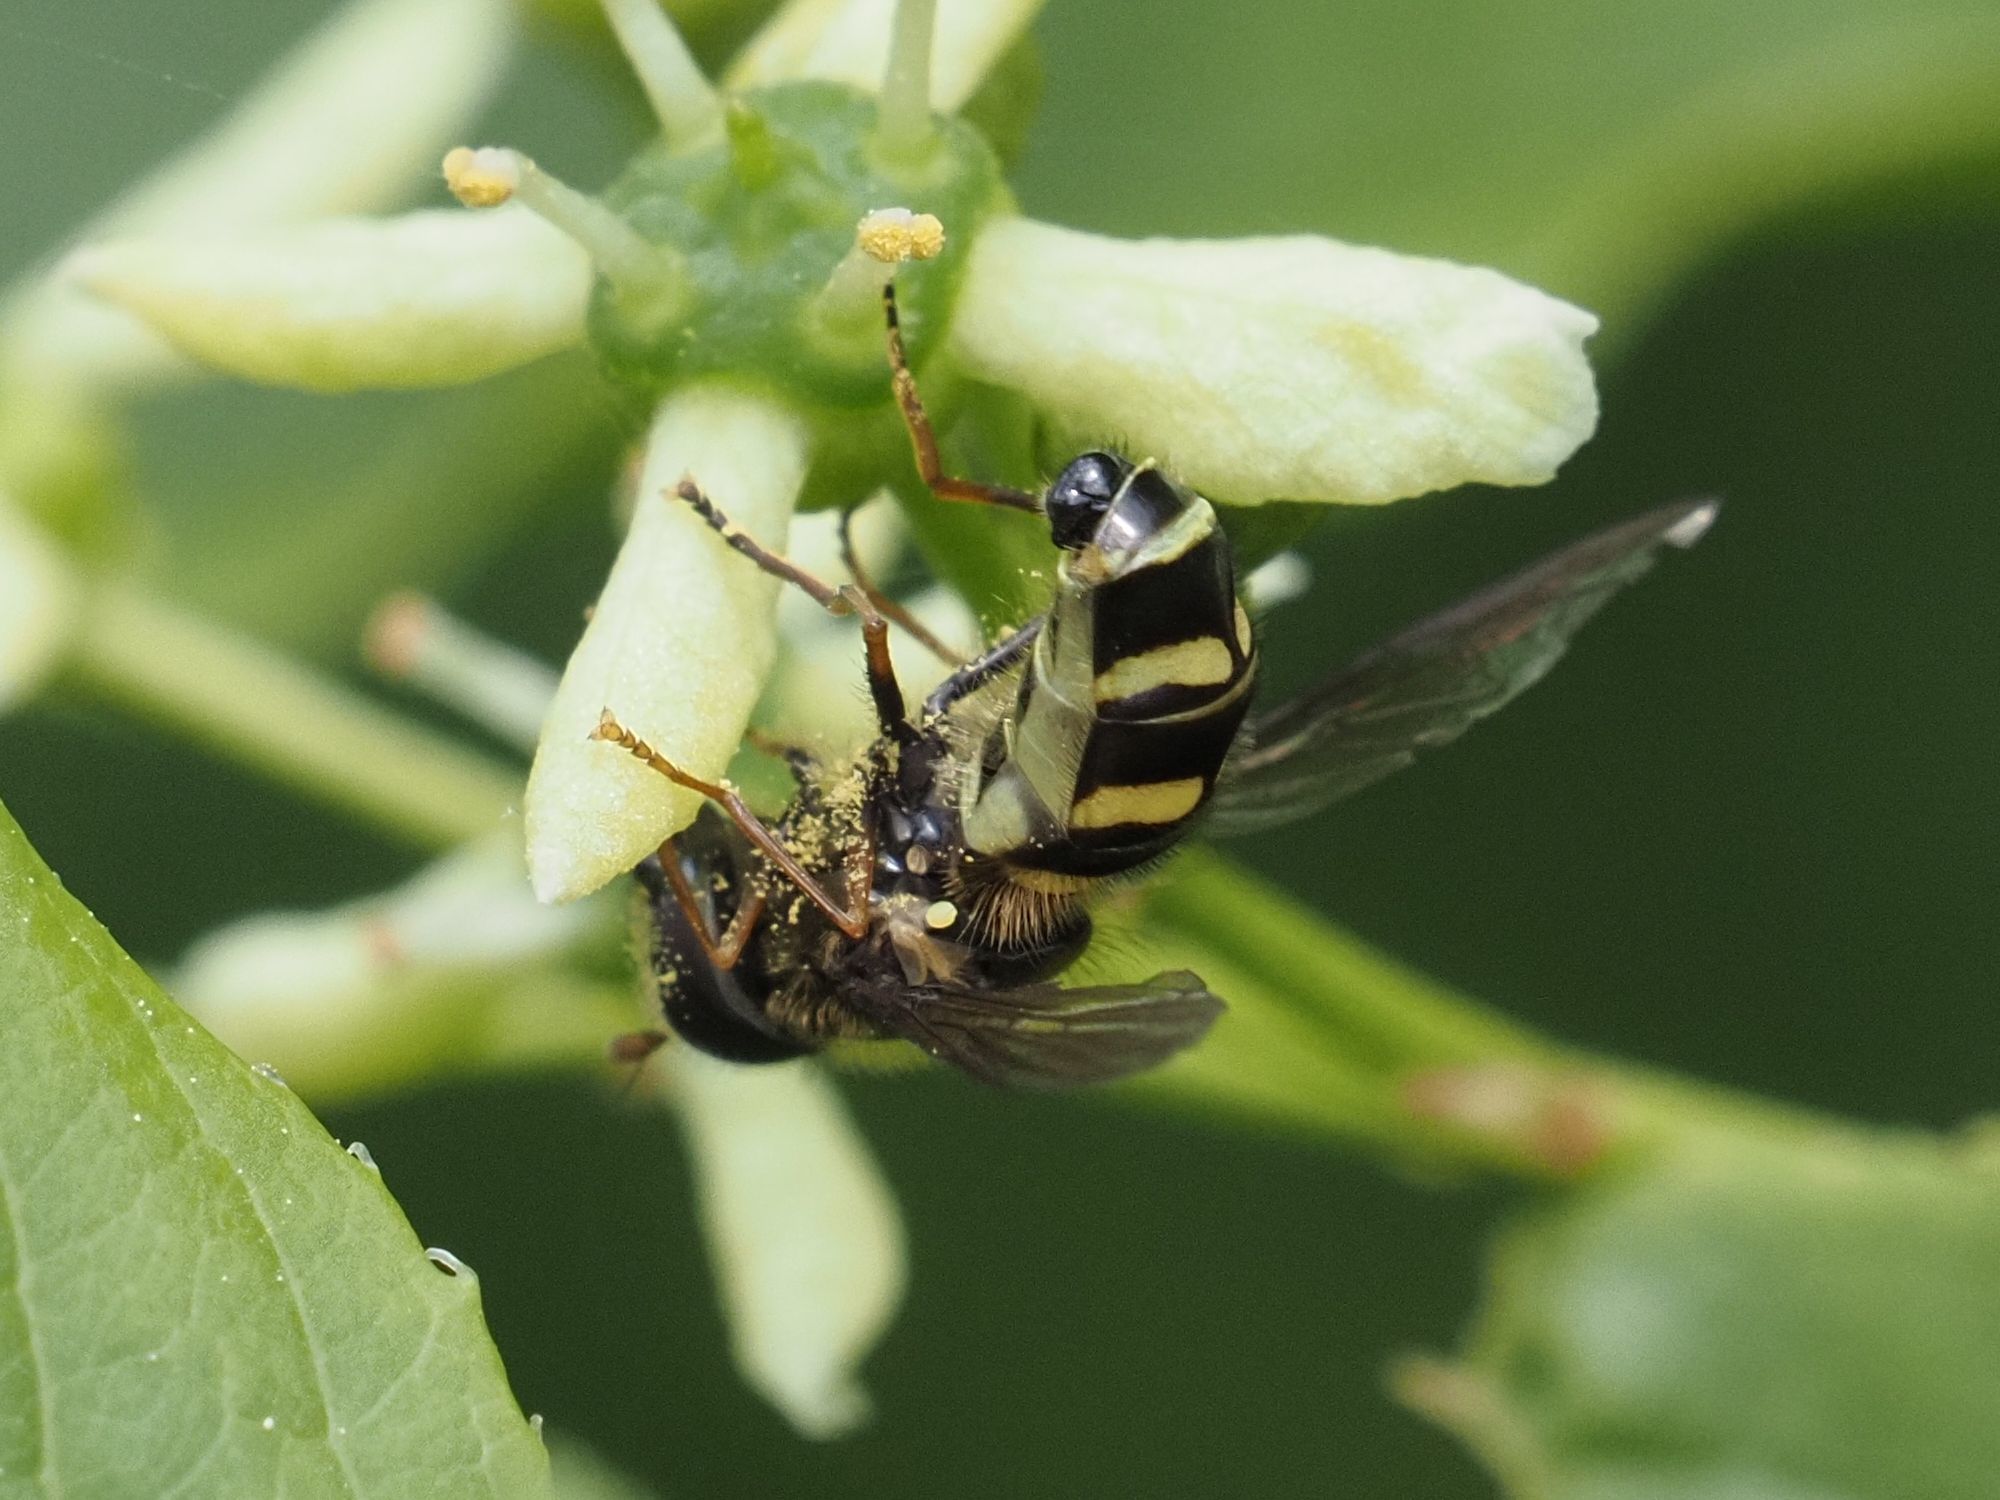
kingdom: Animalia
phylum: Arthropoda
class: Insecta
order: Diptera
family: Syrphidae
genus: Dasysyrphus
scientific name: Dasysyrphus
